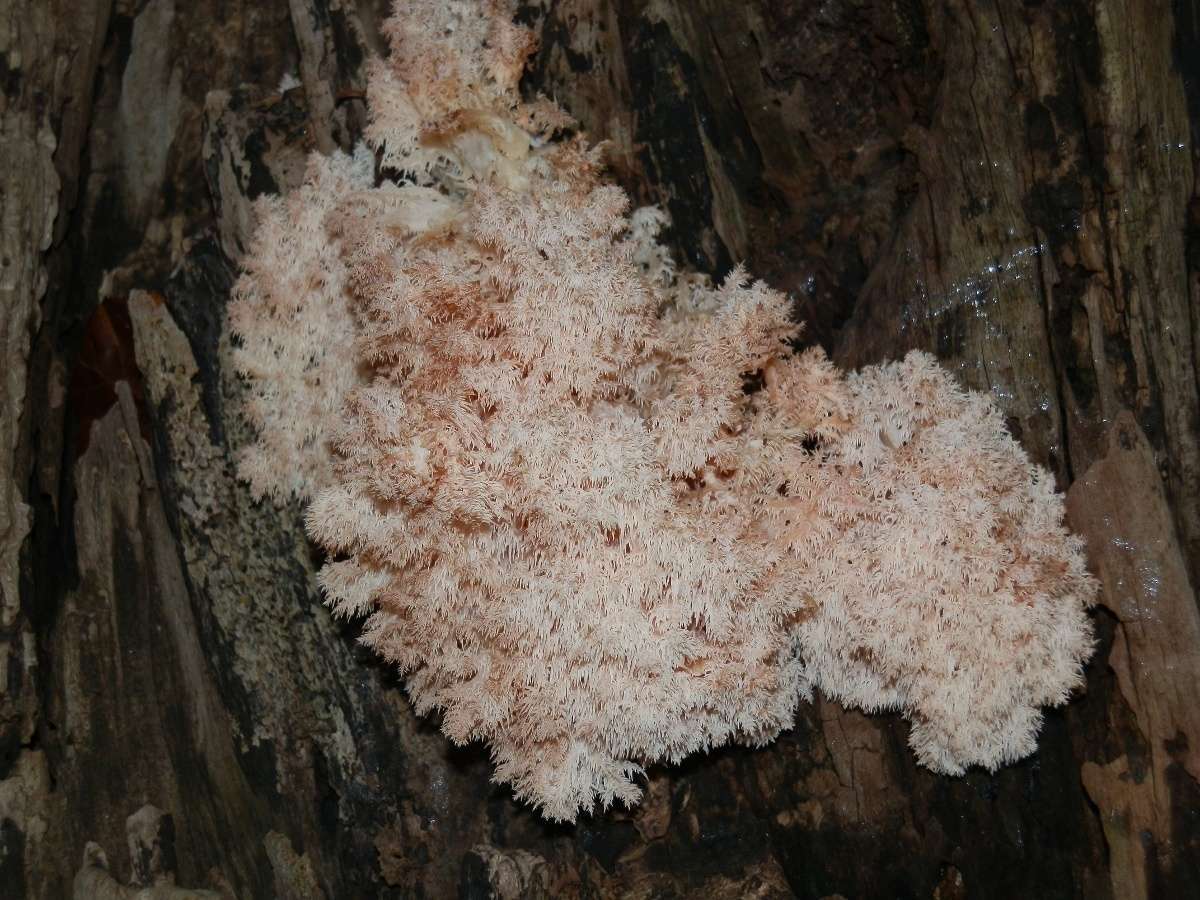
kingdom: Fungi
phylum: Basidiomycota
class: Agaricomycetes
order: Russulales
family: Hericiaceae
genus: Hericium
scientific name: Hericium coralloides
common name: Coral tooth
